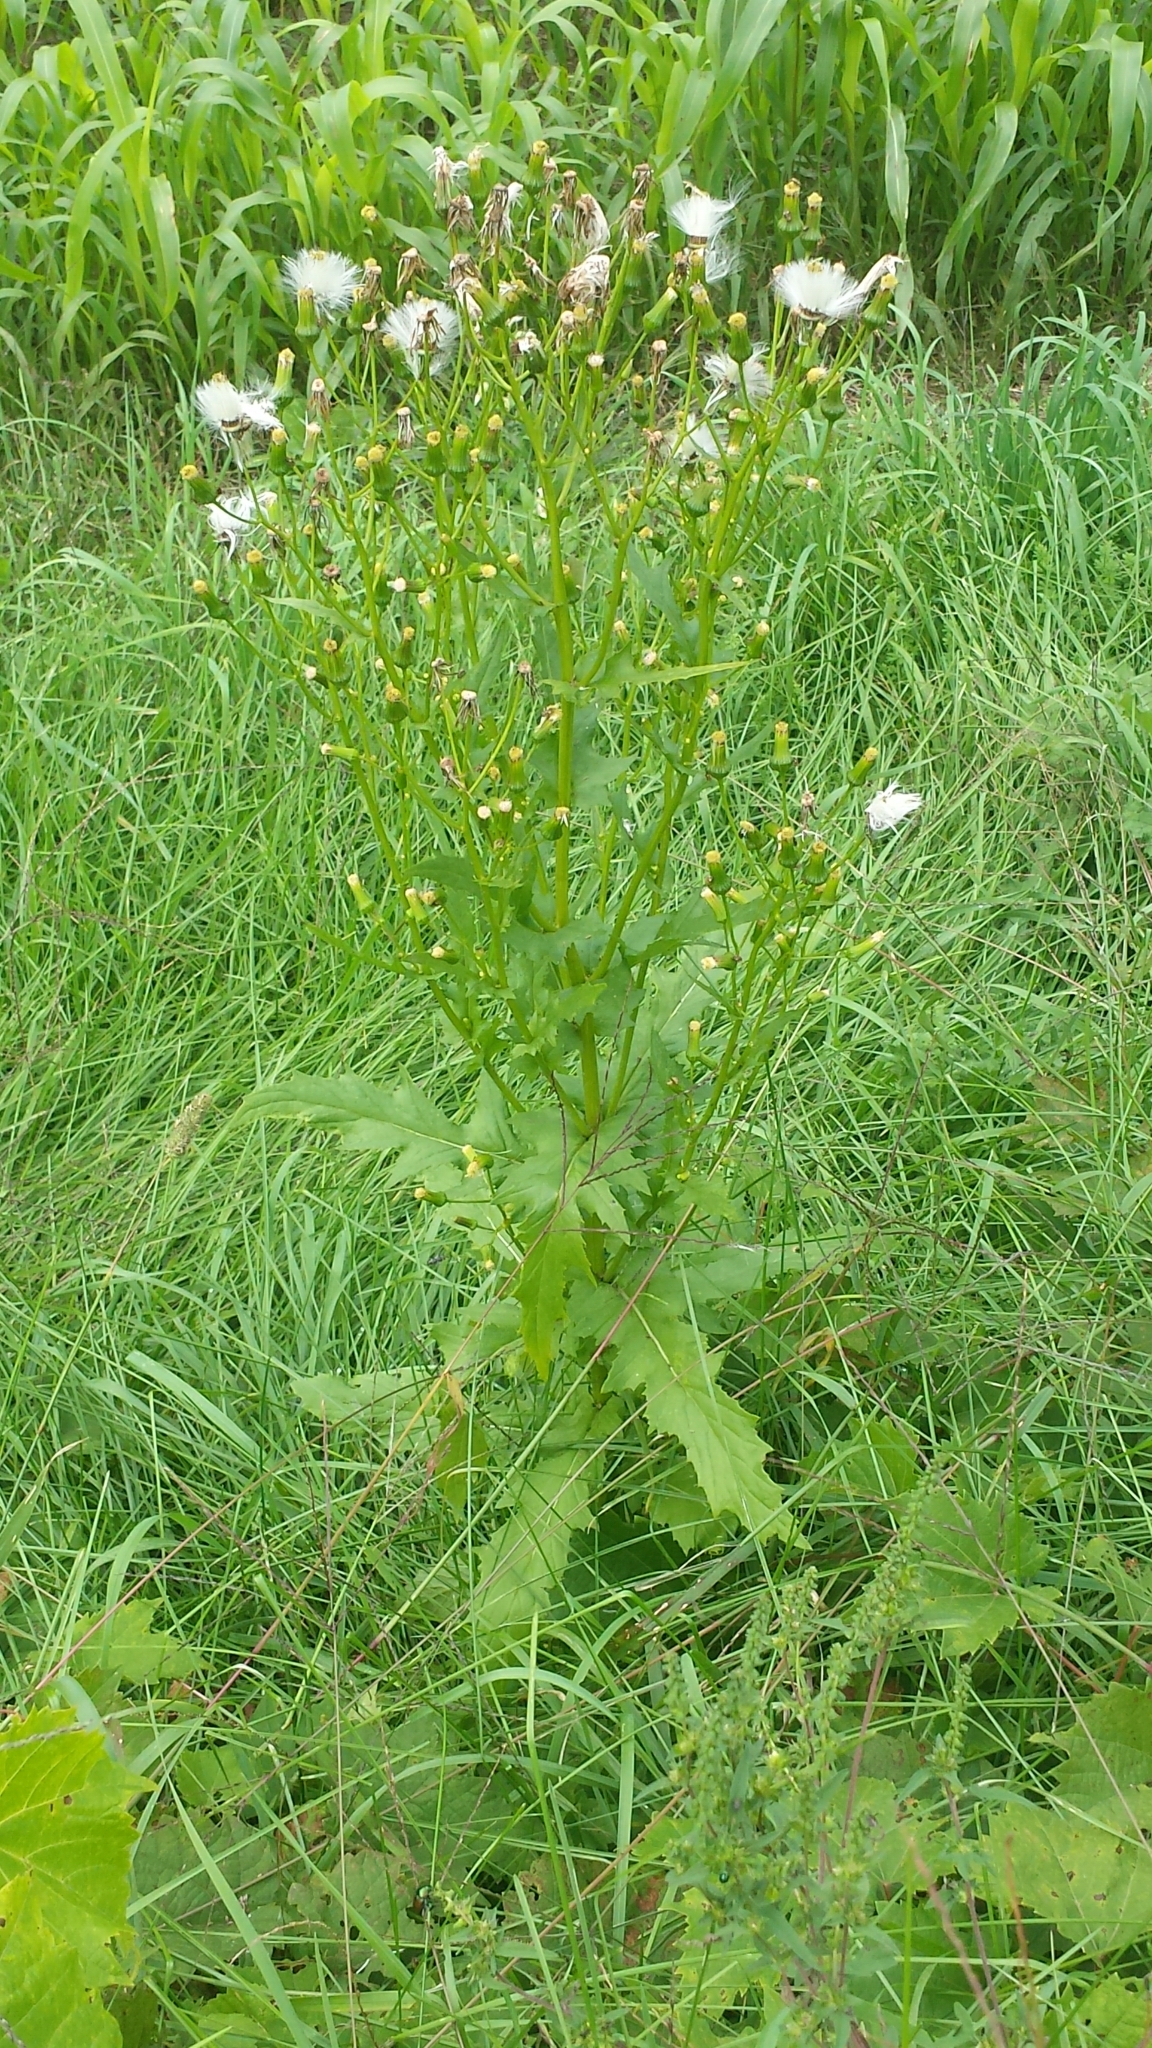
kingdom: Plantae
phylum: Tracheophyta
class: Magnoliopsida
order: Asterales
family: Asteraceae
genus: Erechtites
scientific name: Erechtites hieraciifolius
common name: American burnweed
